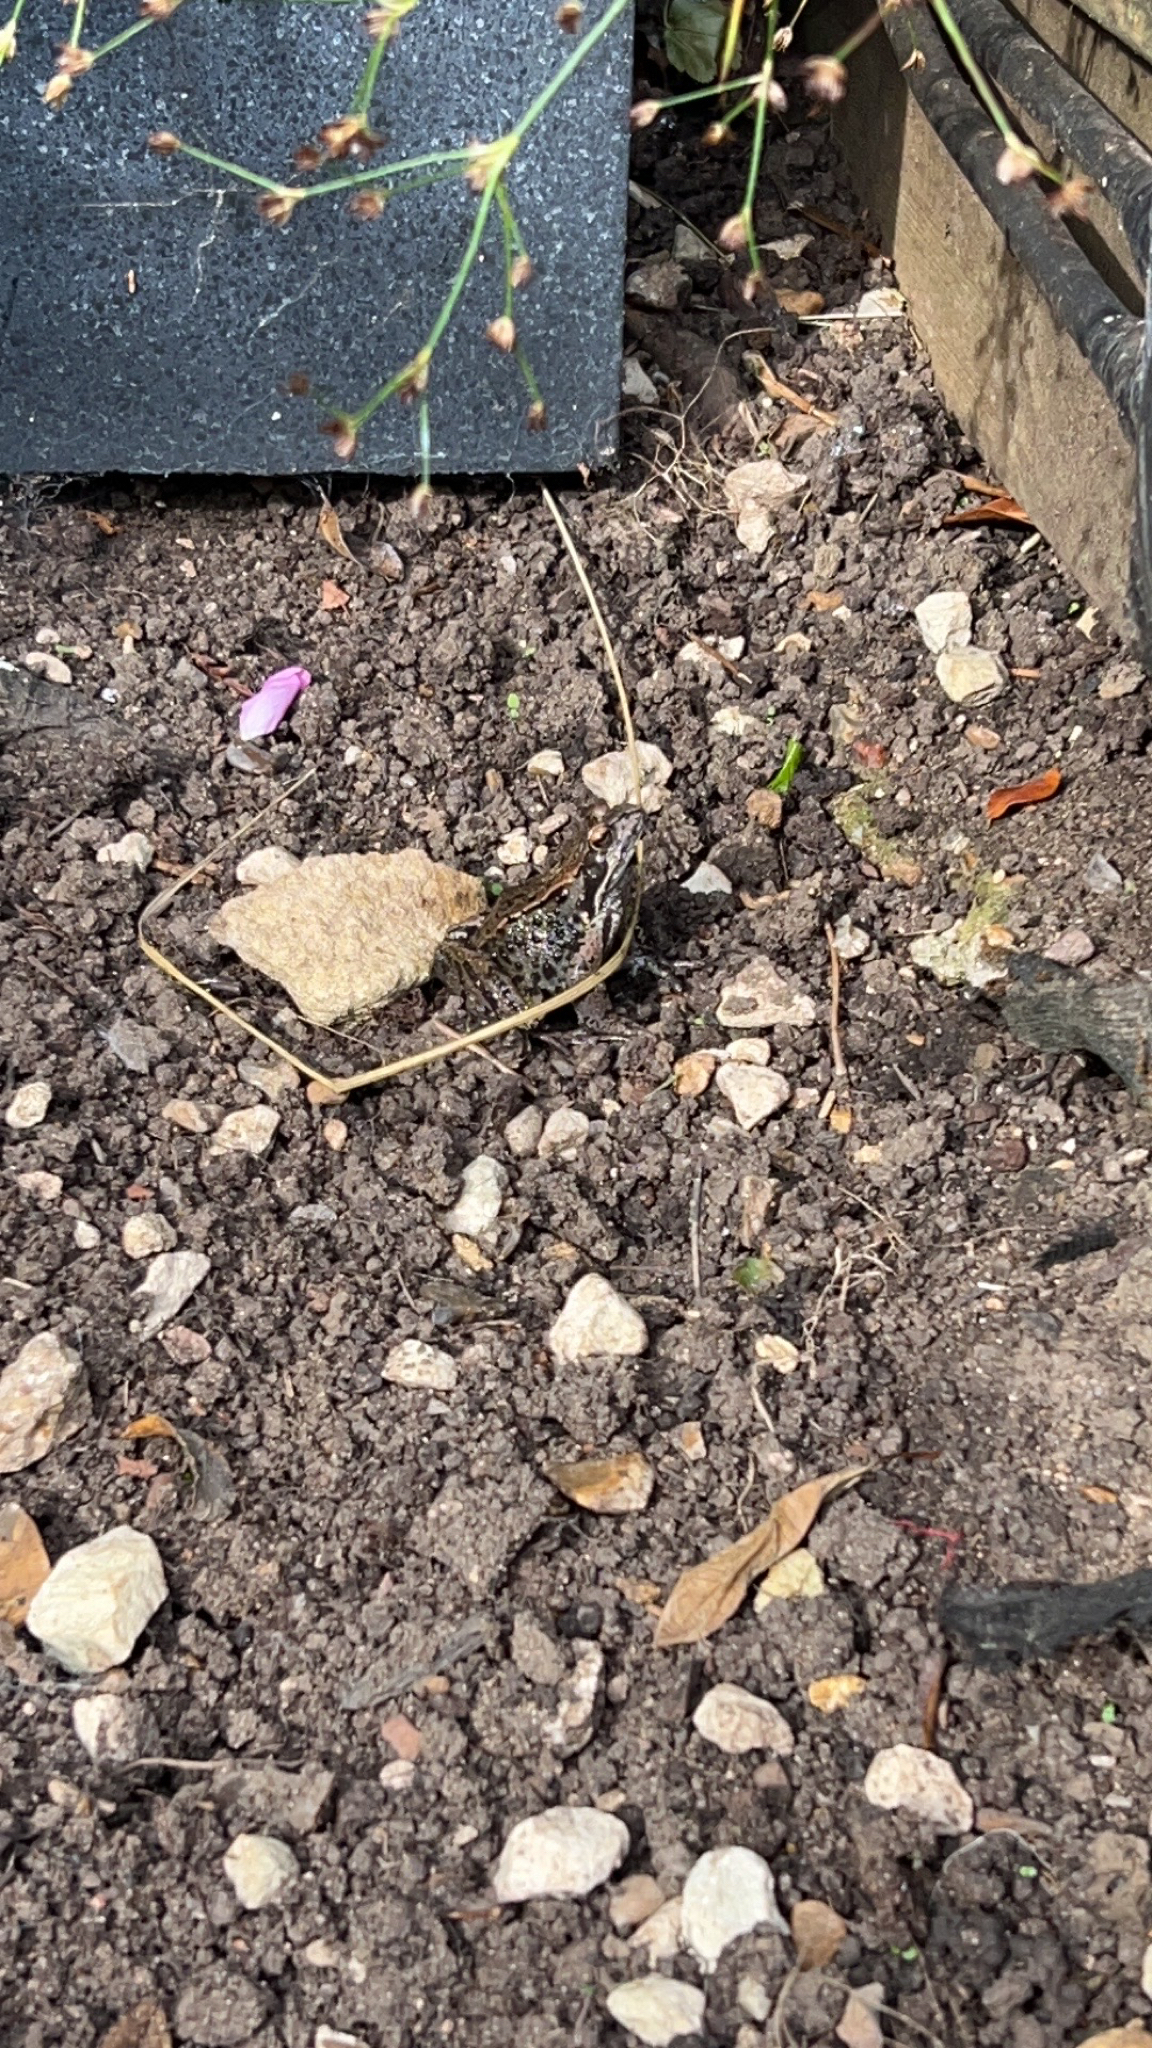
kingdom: Animalia
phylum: Chordata
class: Amphibia
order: Anura
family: Ranidae
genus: Rana
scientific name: Rana temporaria
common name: Common frog
